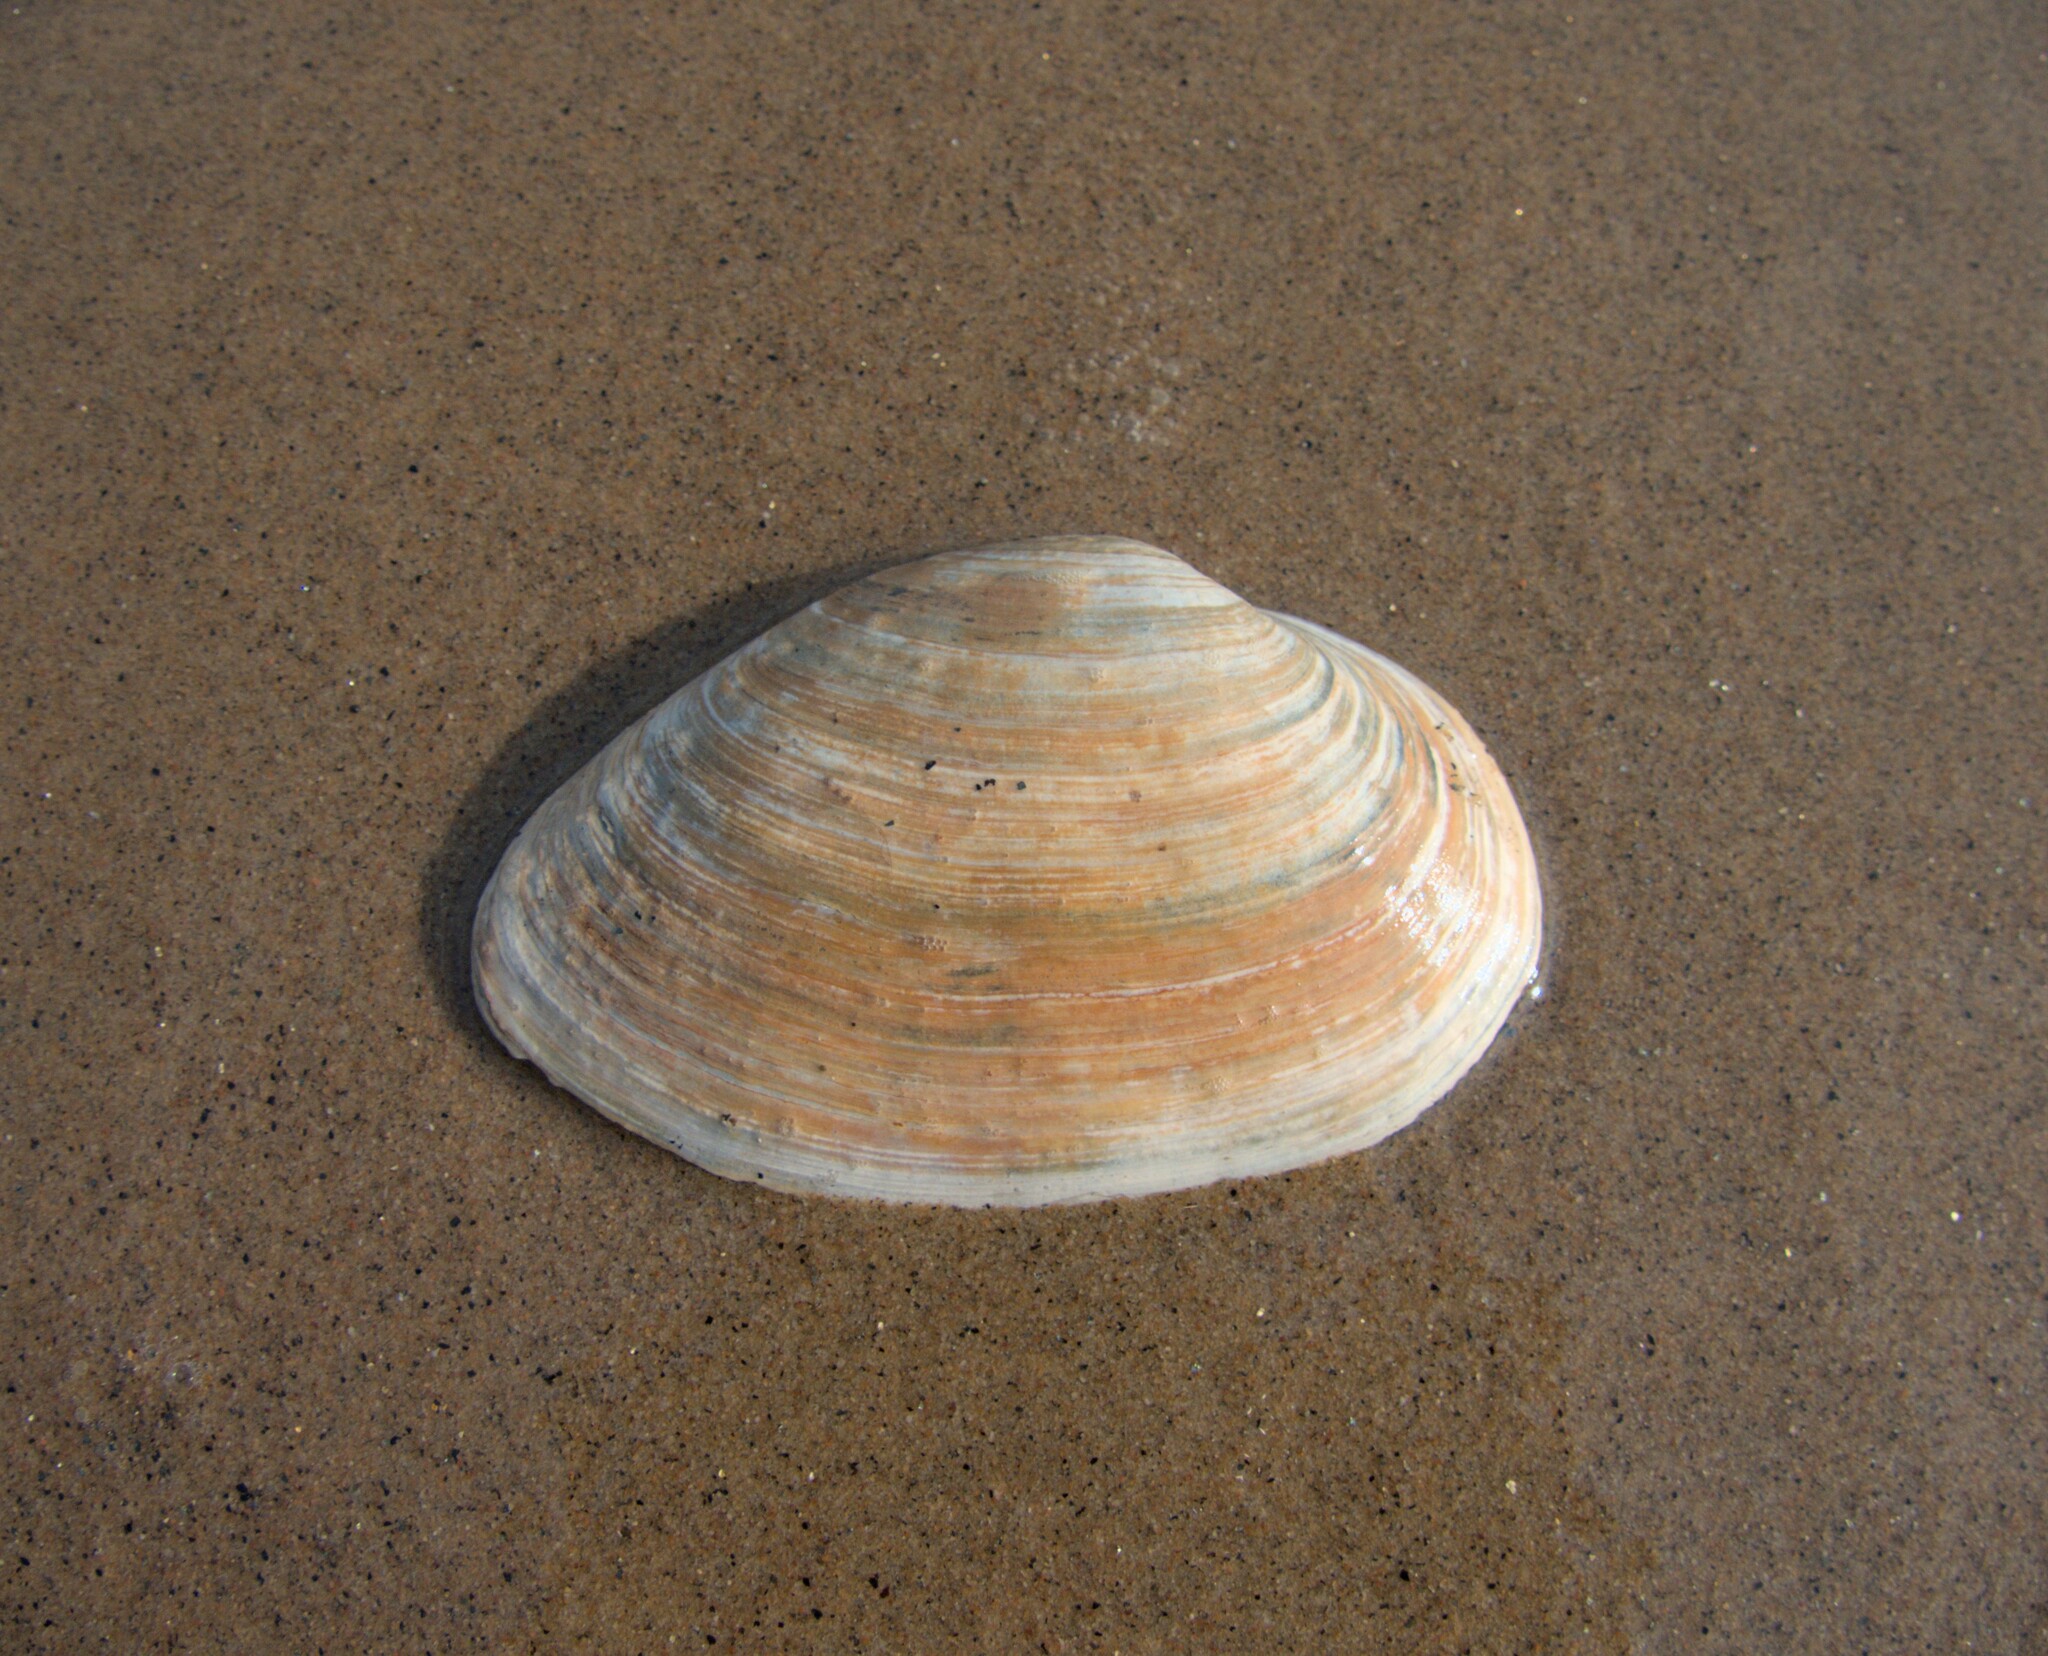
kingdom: Animalia
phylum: Mollusca
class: Bivalvia
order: Myida
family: Myidae
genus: Mya
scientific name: Mya arenaria
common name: Soft-shelled clam
